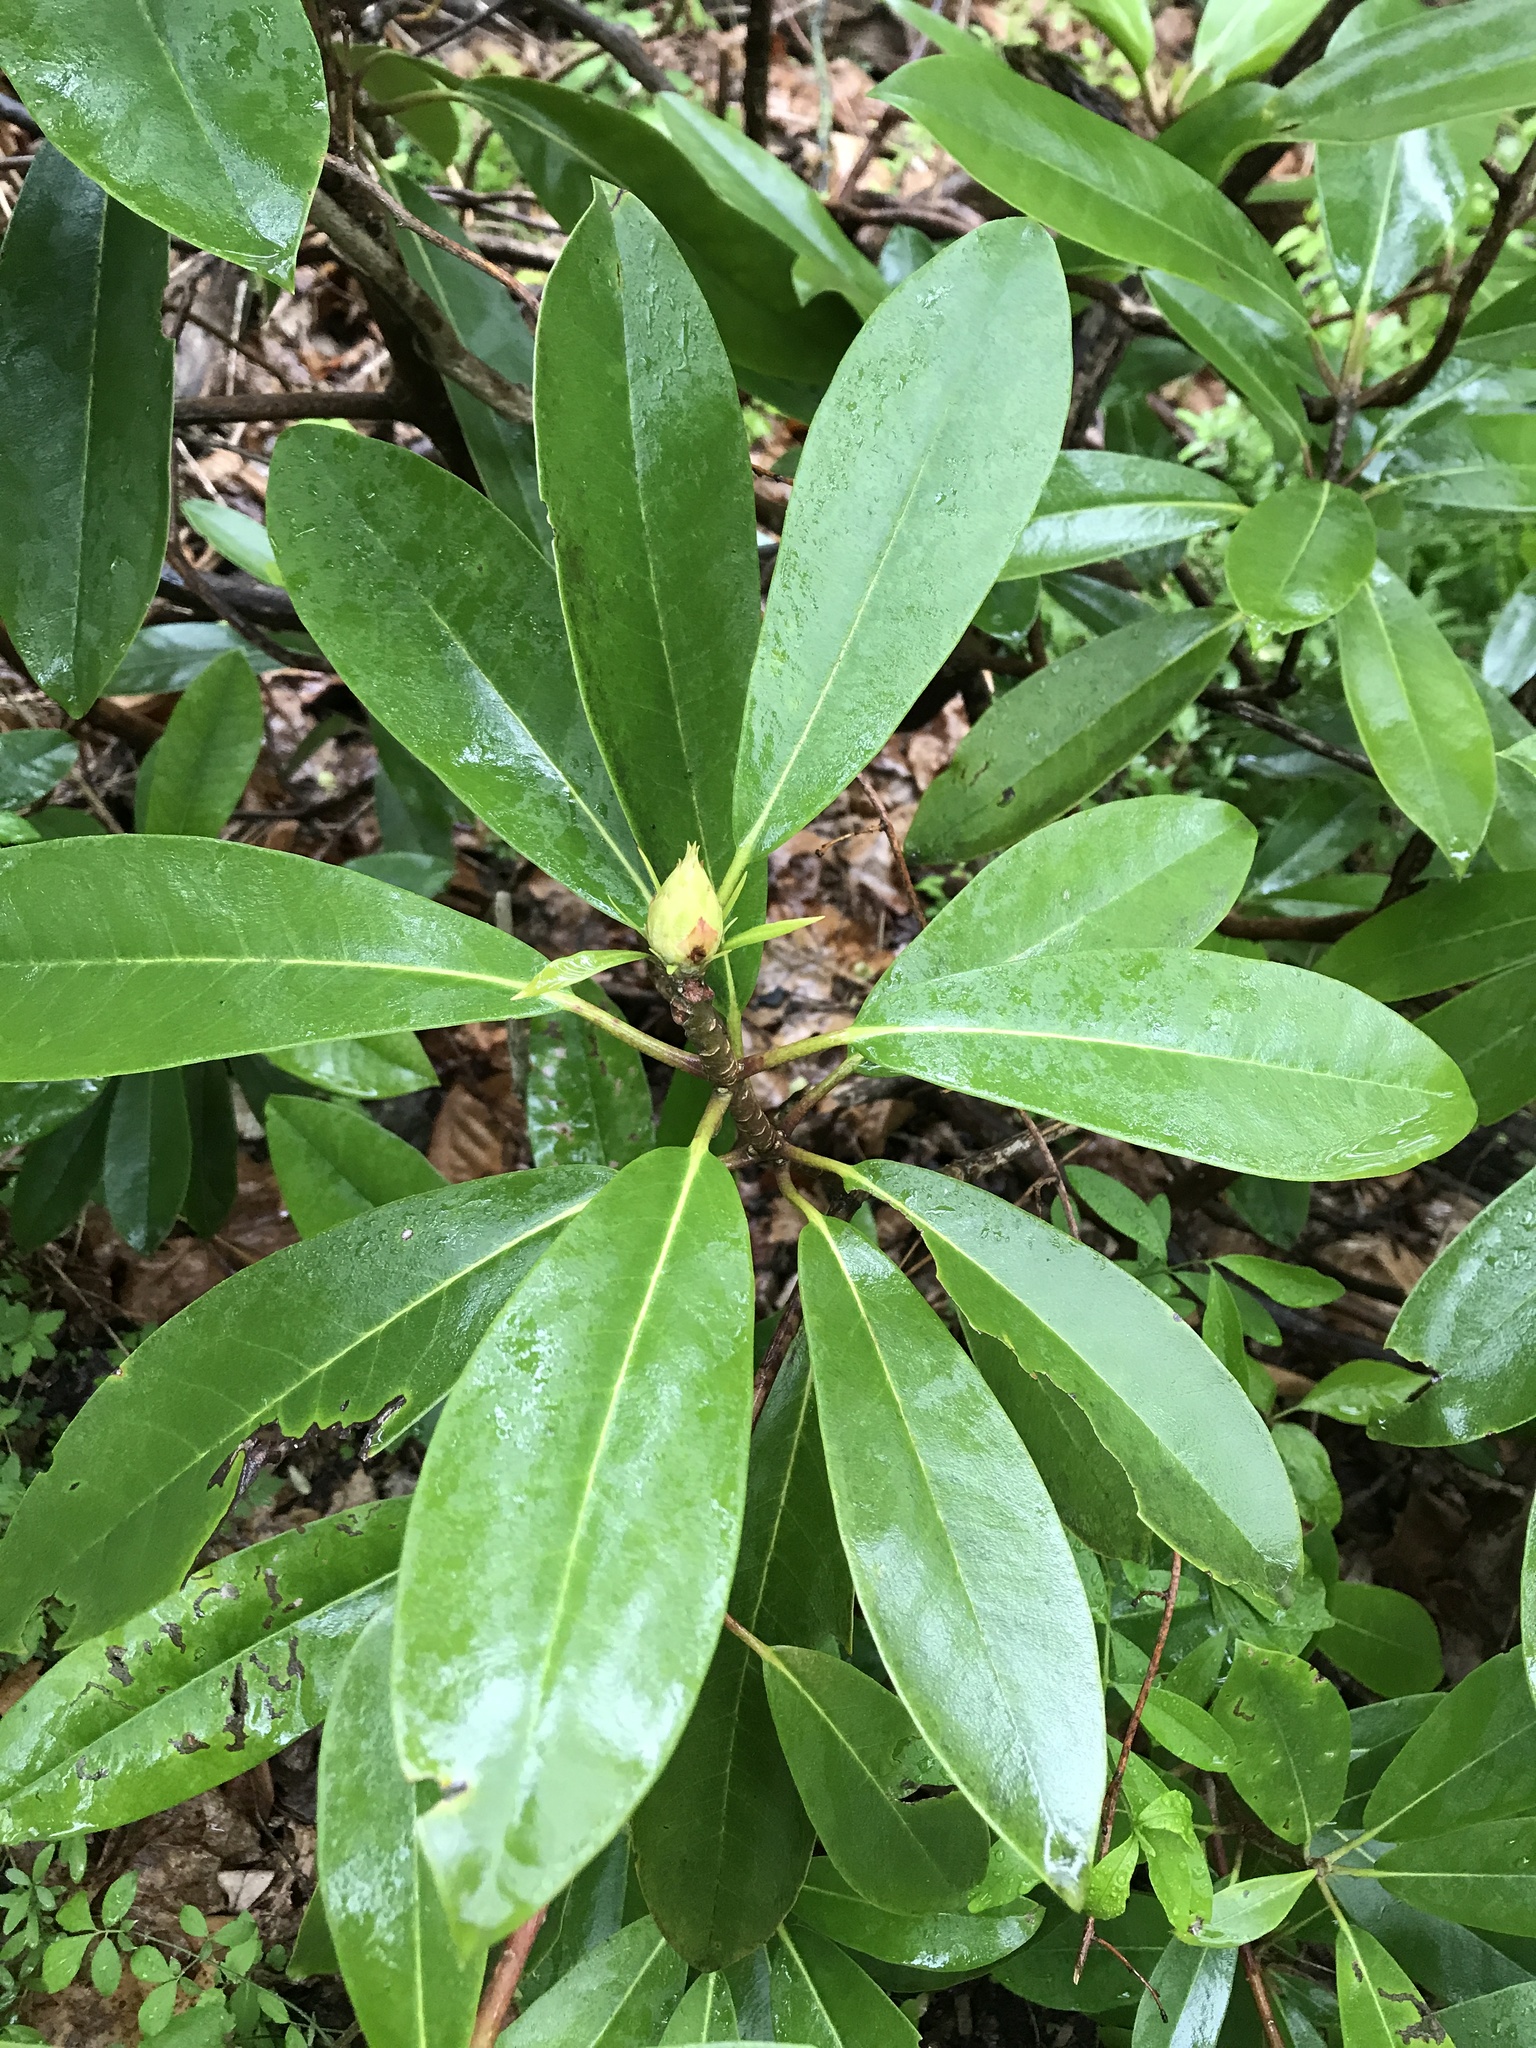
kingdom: Plantae
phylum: Tracheophyta
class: Magnoliopsida
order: Ericales
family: Ericaceae
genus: Rhododendron
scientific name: Rhododendron maximum
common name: Great rhododendron
